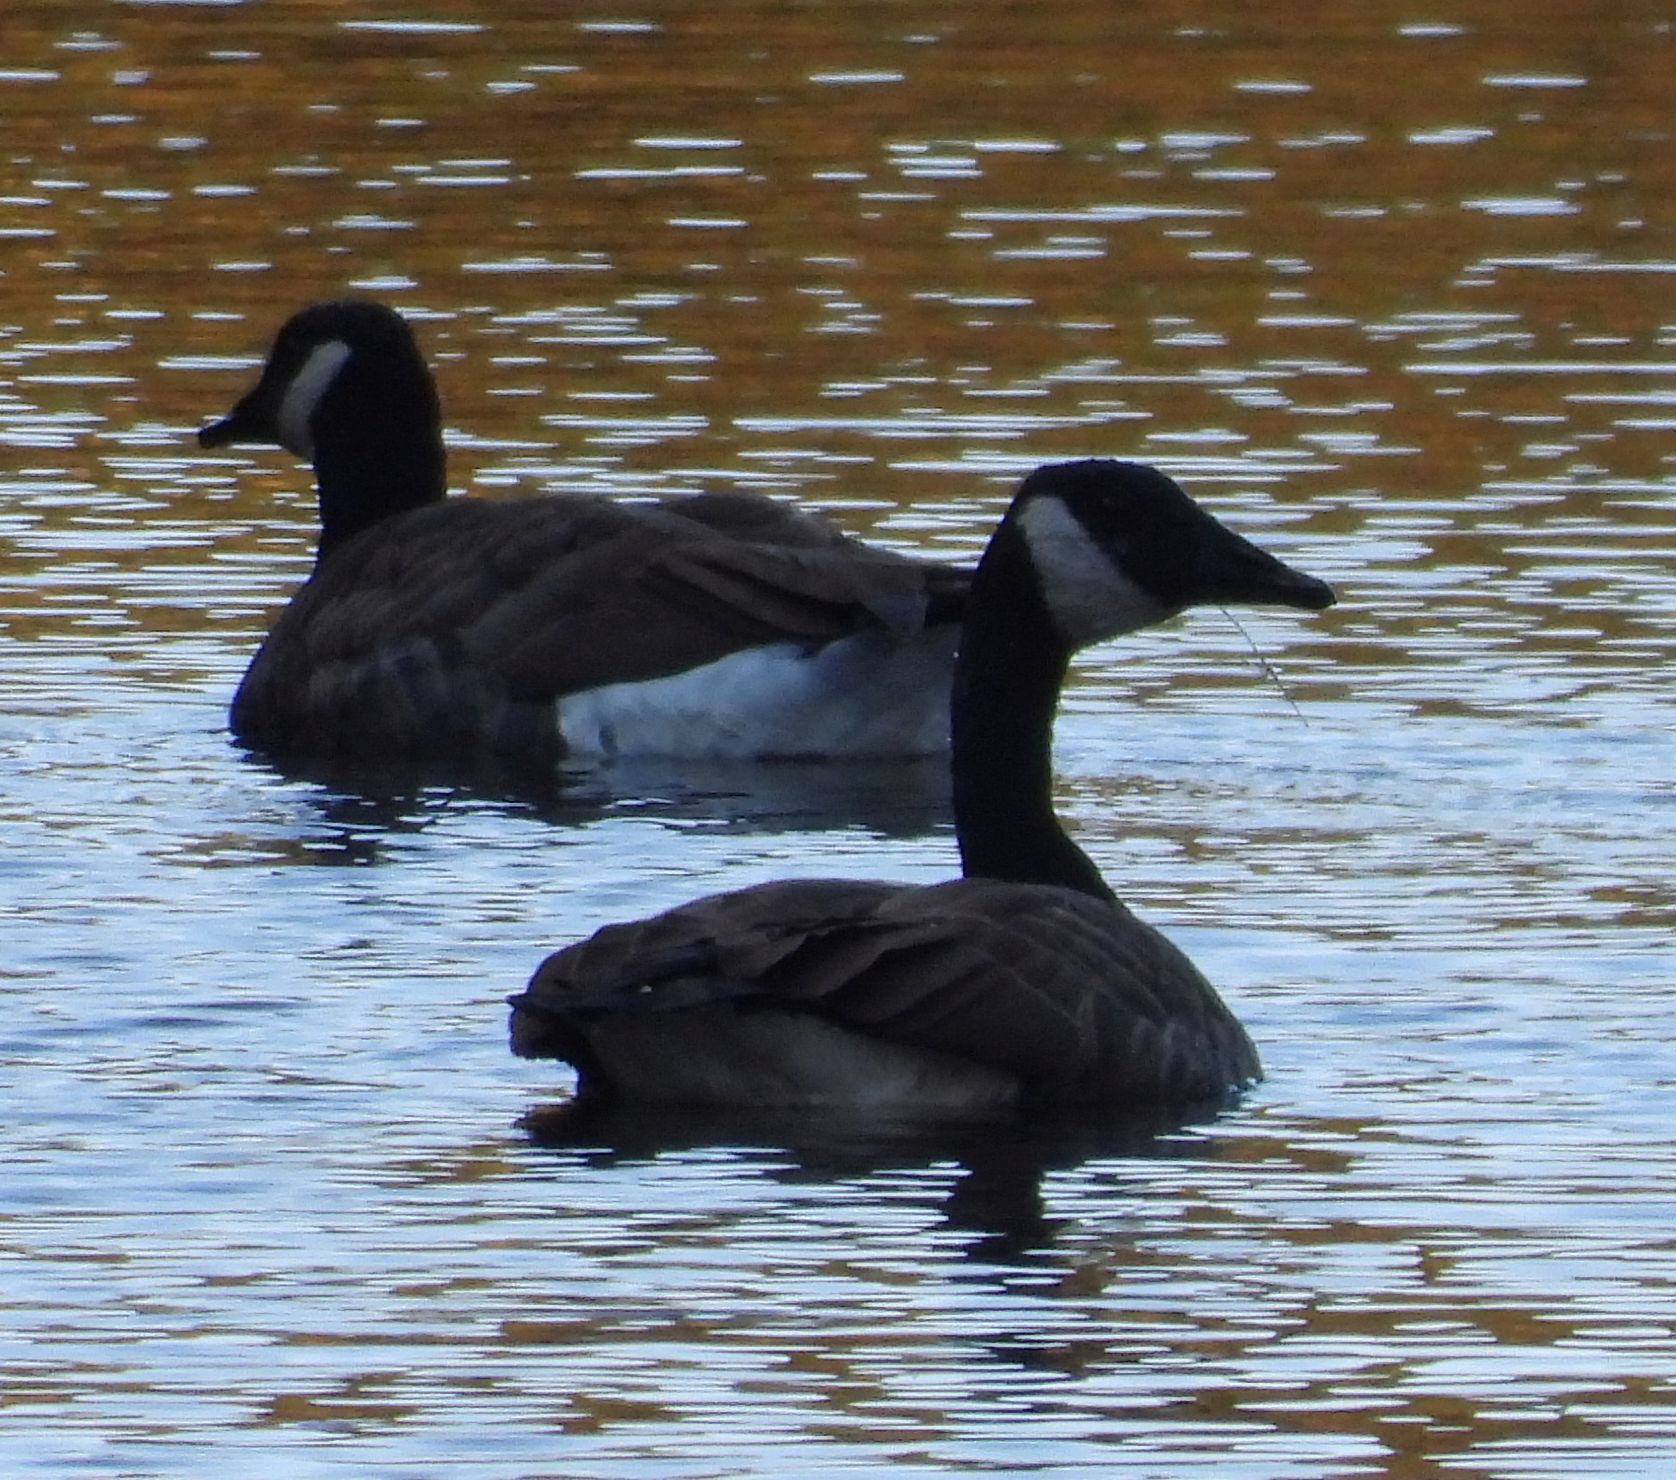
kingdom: Animalia
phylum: Chordata
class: Aves
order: Anseriformes
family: Anatidae
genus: Branta
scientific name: Branta canadensis
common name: Canada goose
